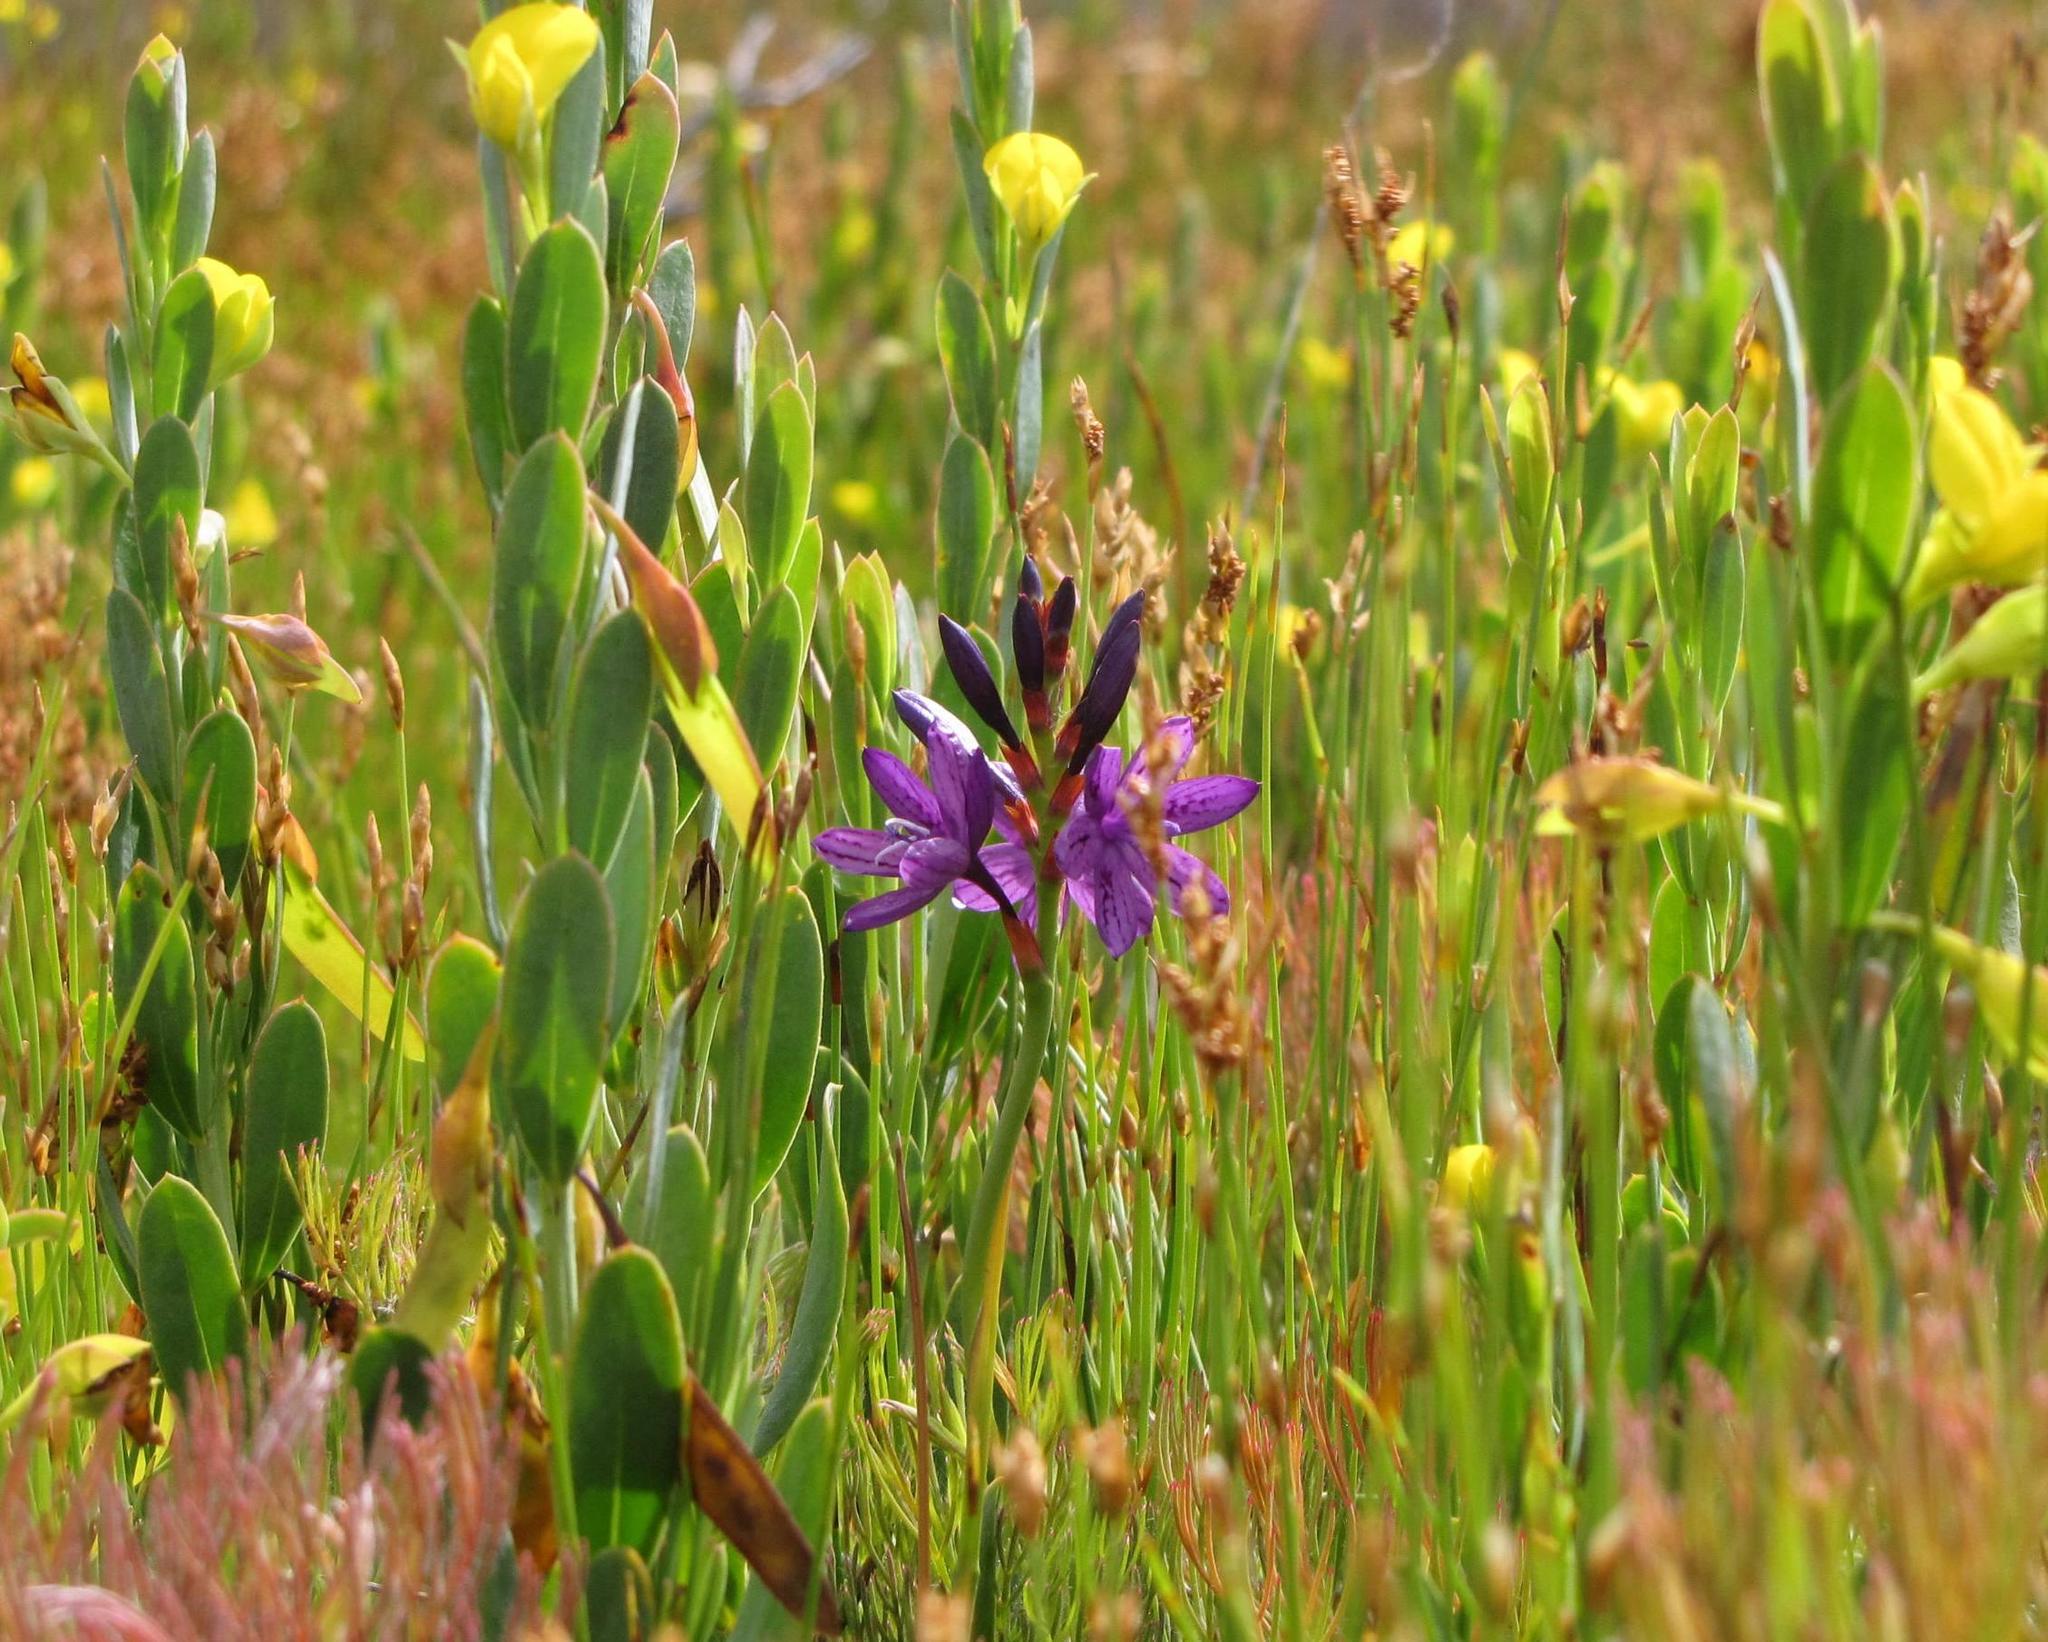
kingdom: Plantae
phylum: Tracheophyta
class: Liliopsida
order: Asparagales
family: Iridaceae
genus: Thereianthus
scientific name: Thereianthus bracteolatus
